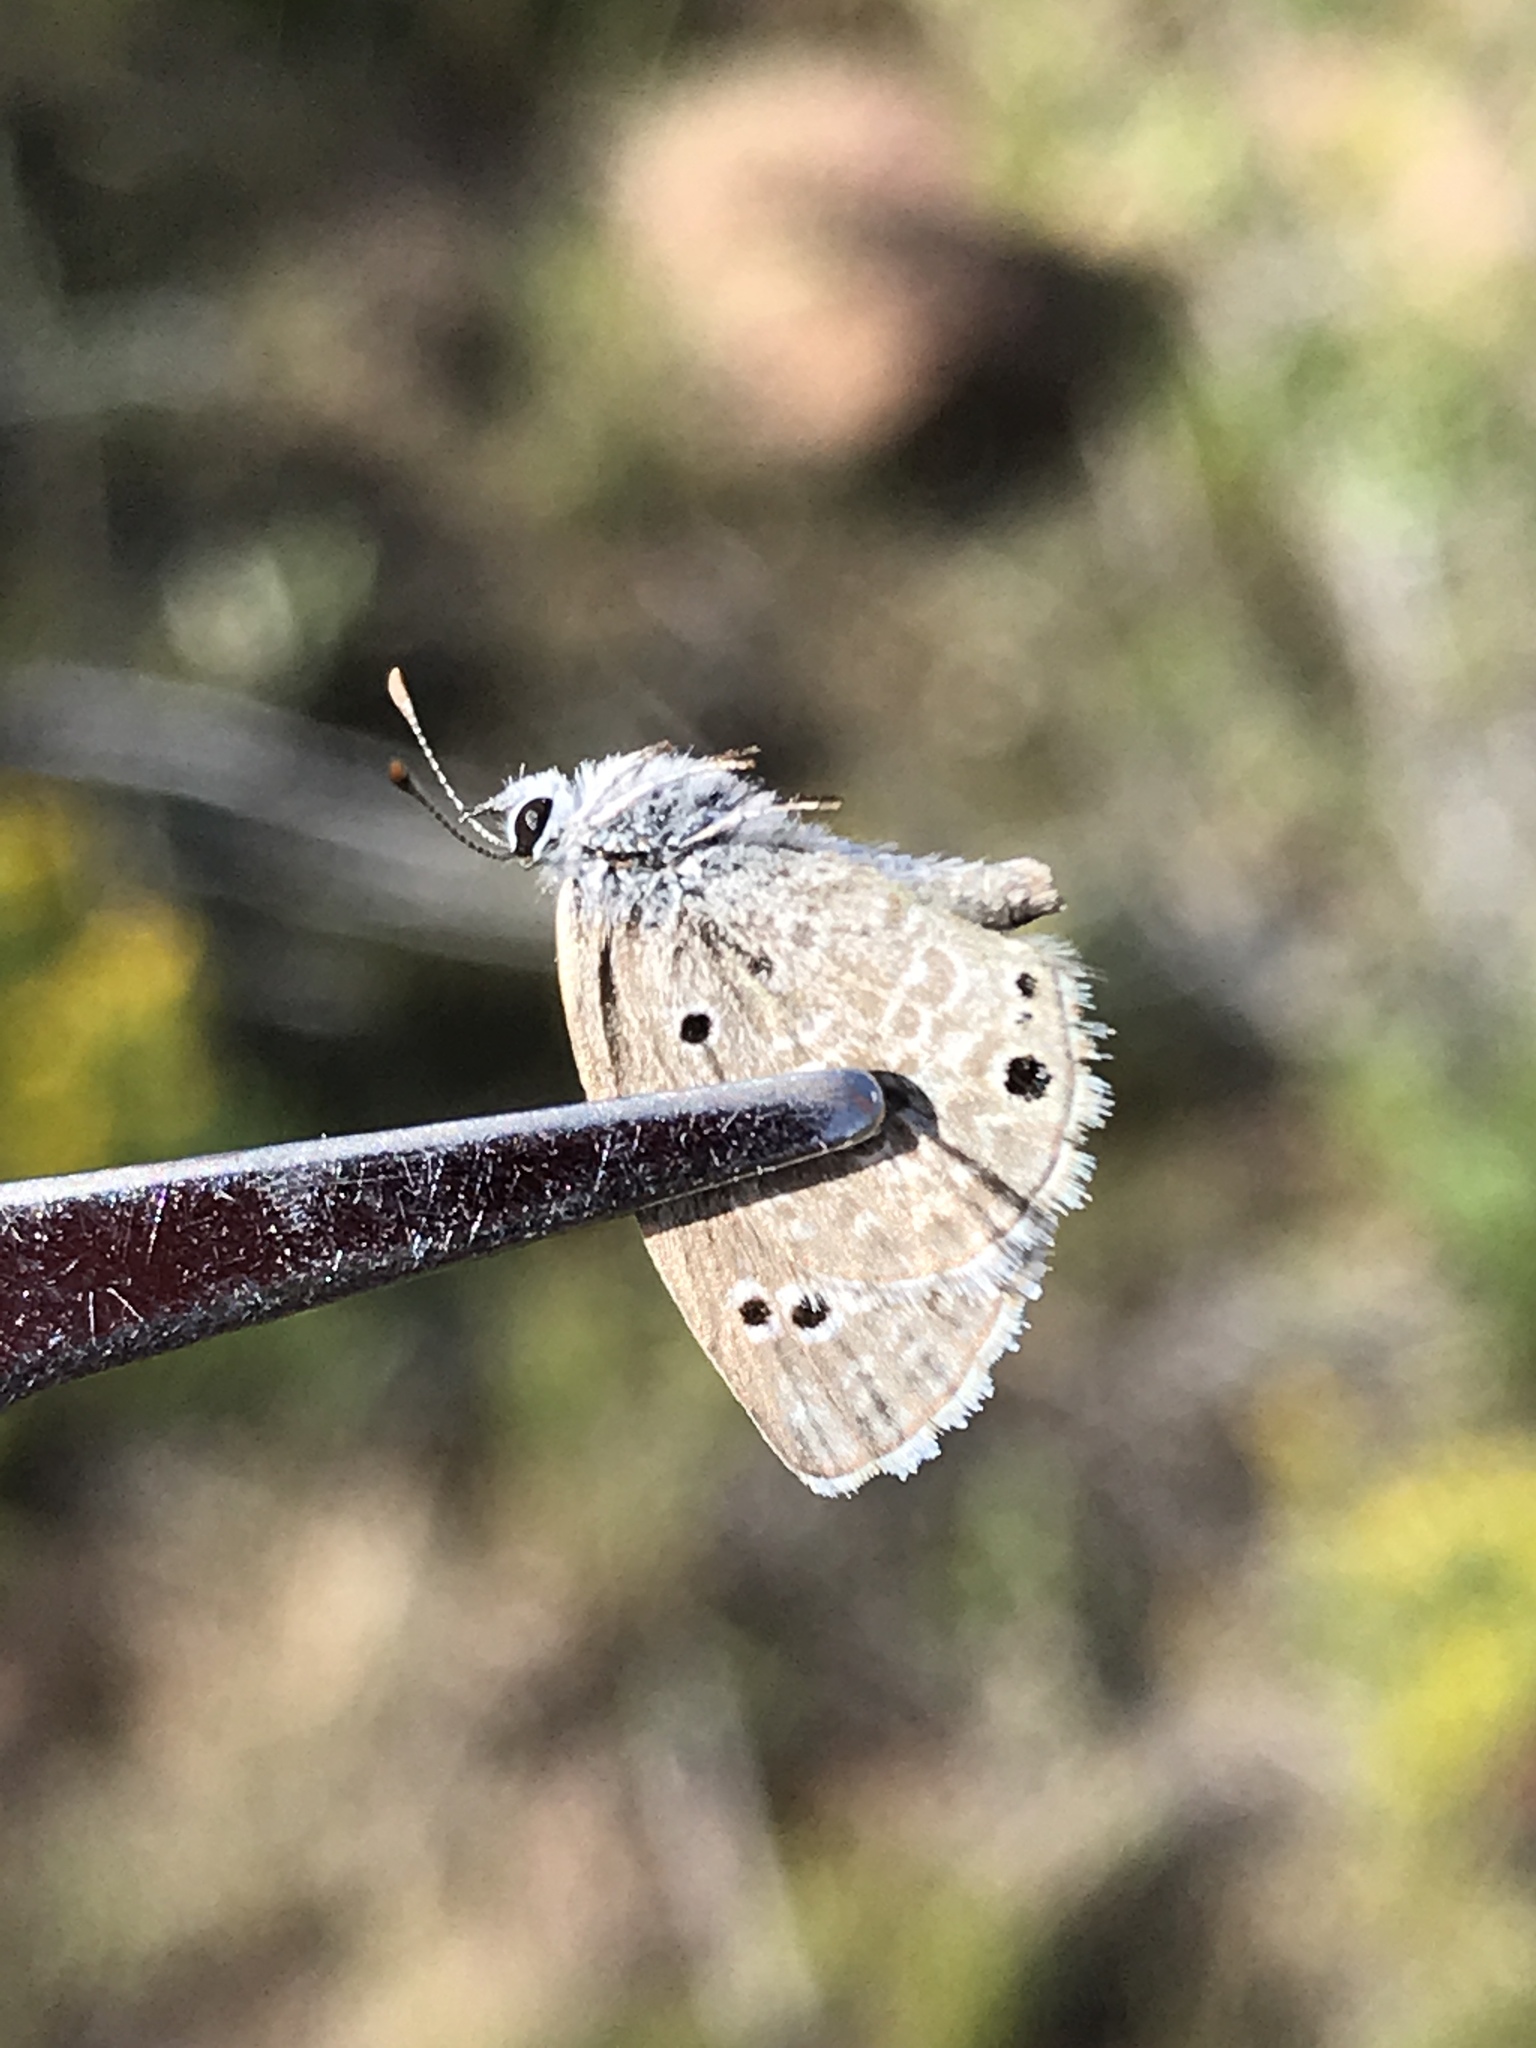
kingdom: Animalia
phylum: Arthropoda
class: Insecta
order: Lepidoptera
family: Lycaenidae
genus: Echinargus
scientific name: Echinargus isola
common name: Reakirt's blue
